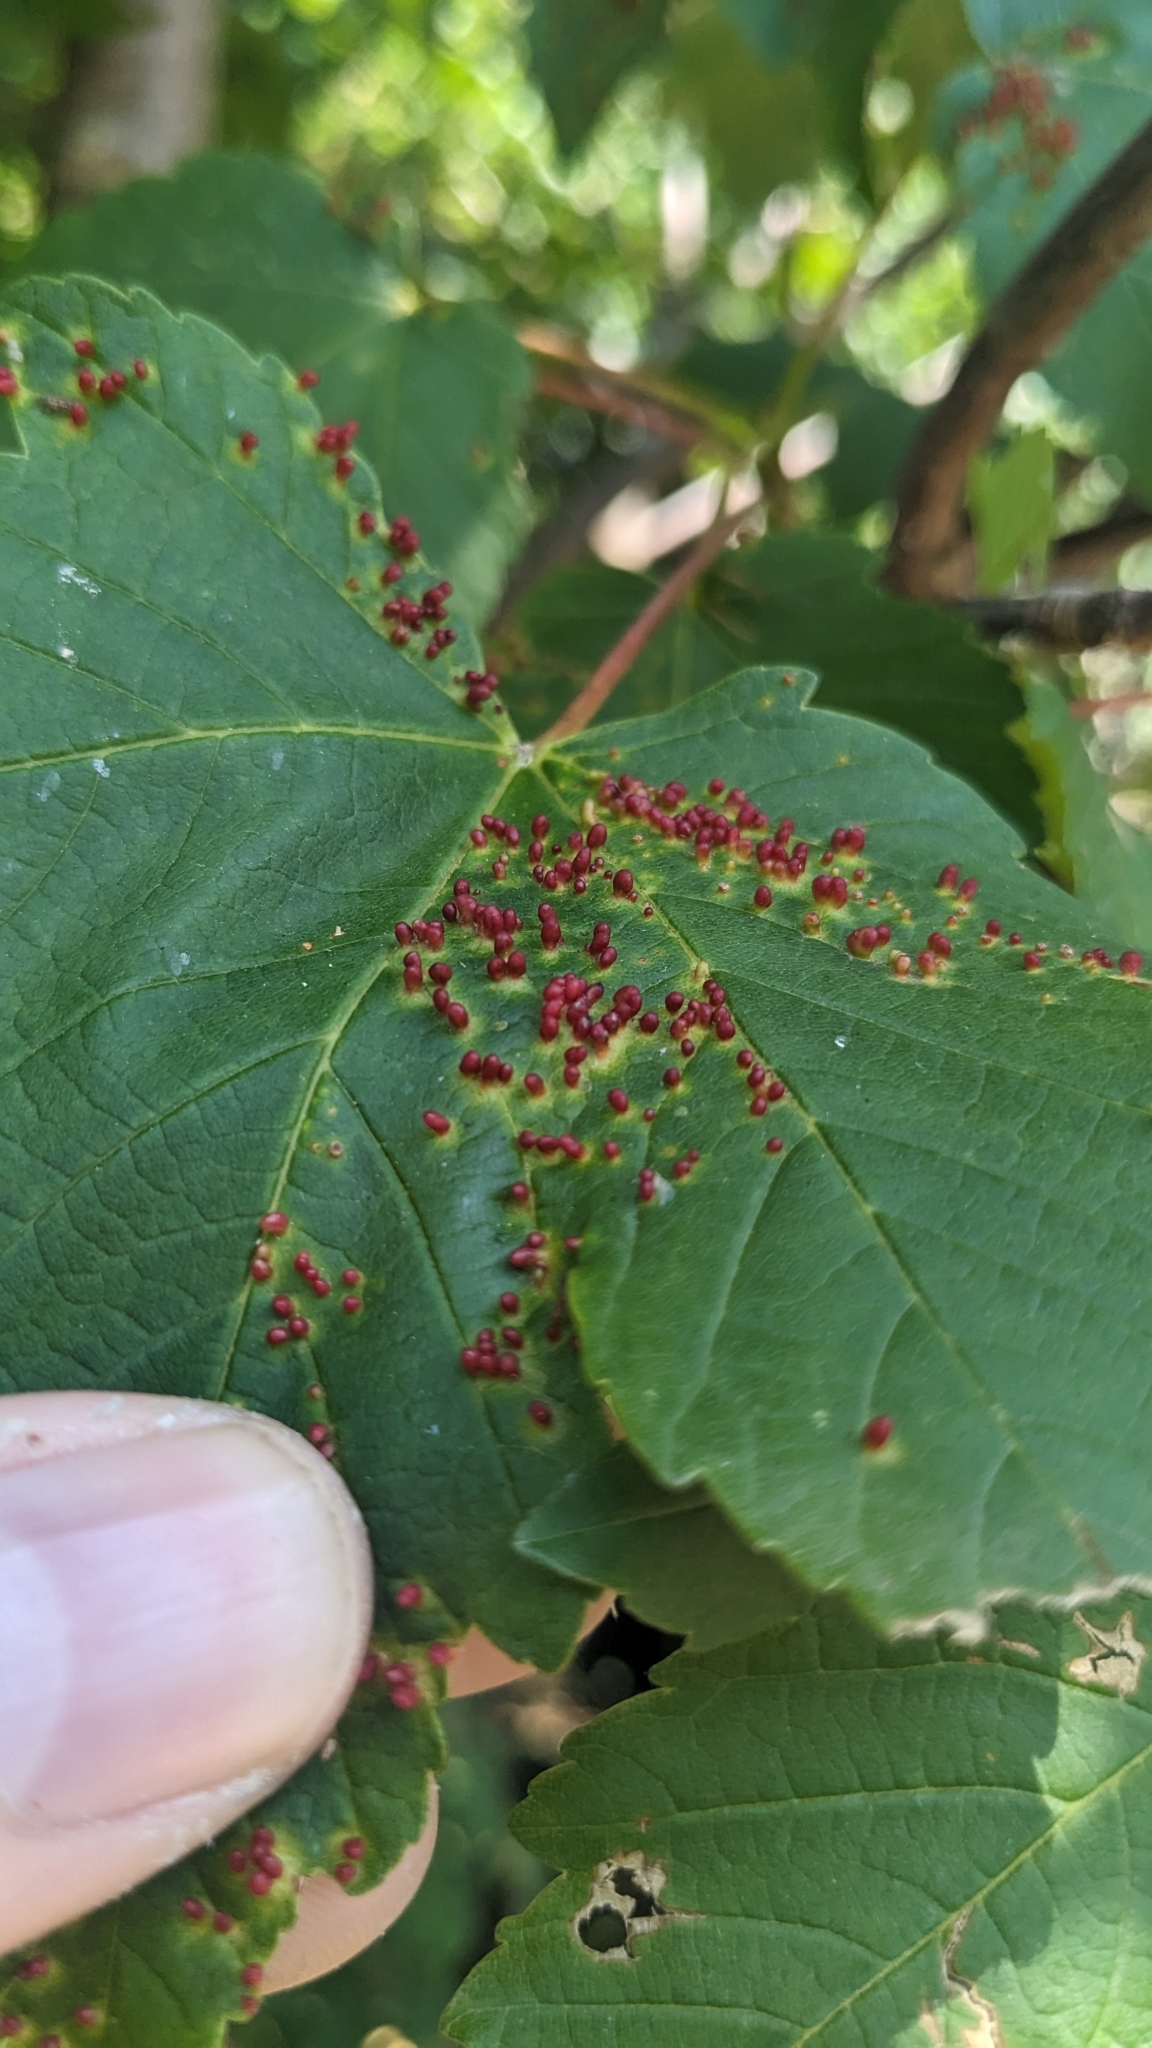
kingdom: Animalia
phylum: Arthropoda
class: Arachnida
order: Trombidiformes
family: Eriophyidae
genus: Aceria
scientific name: Aceria cephaloneus
